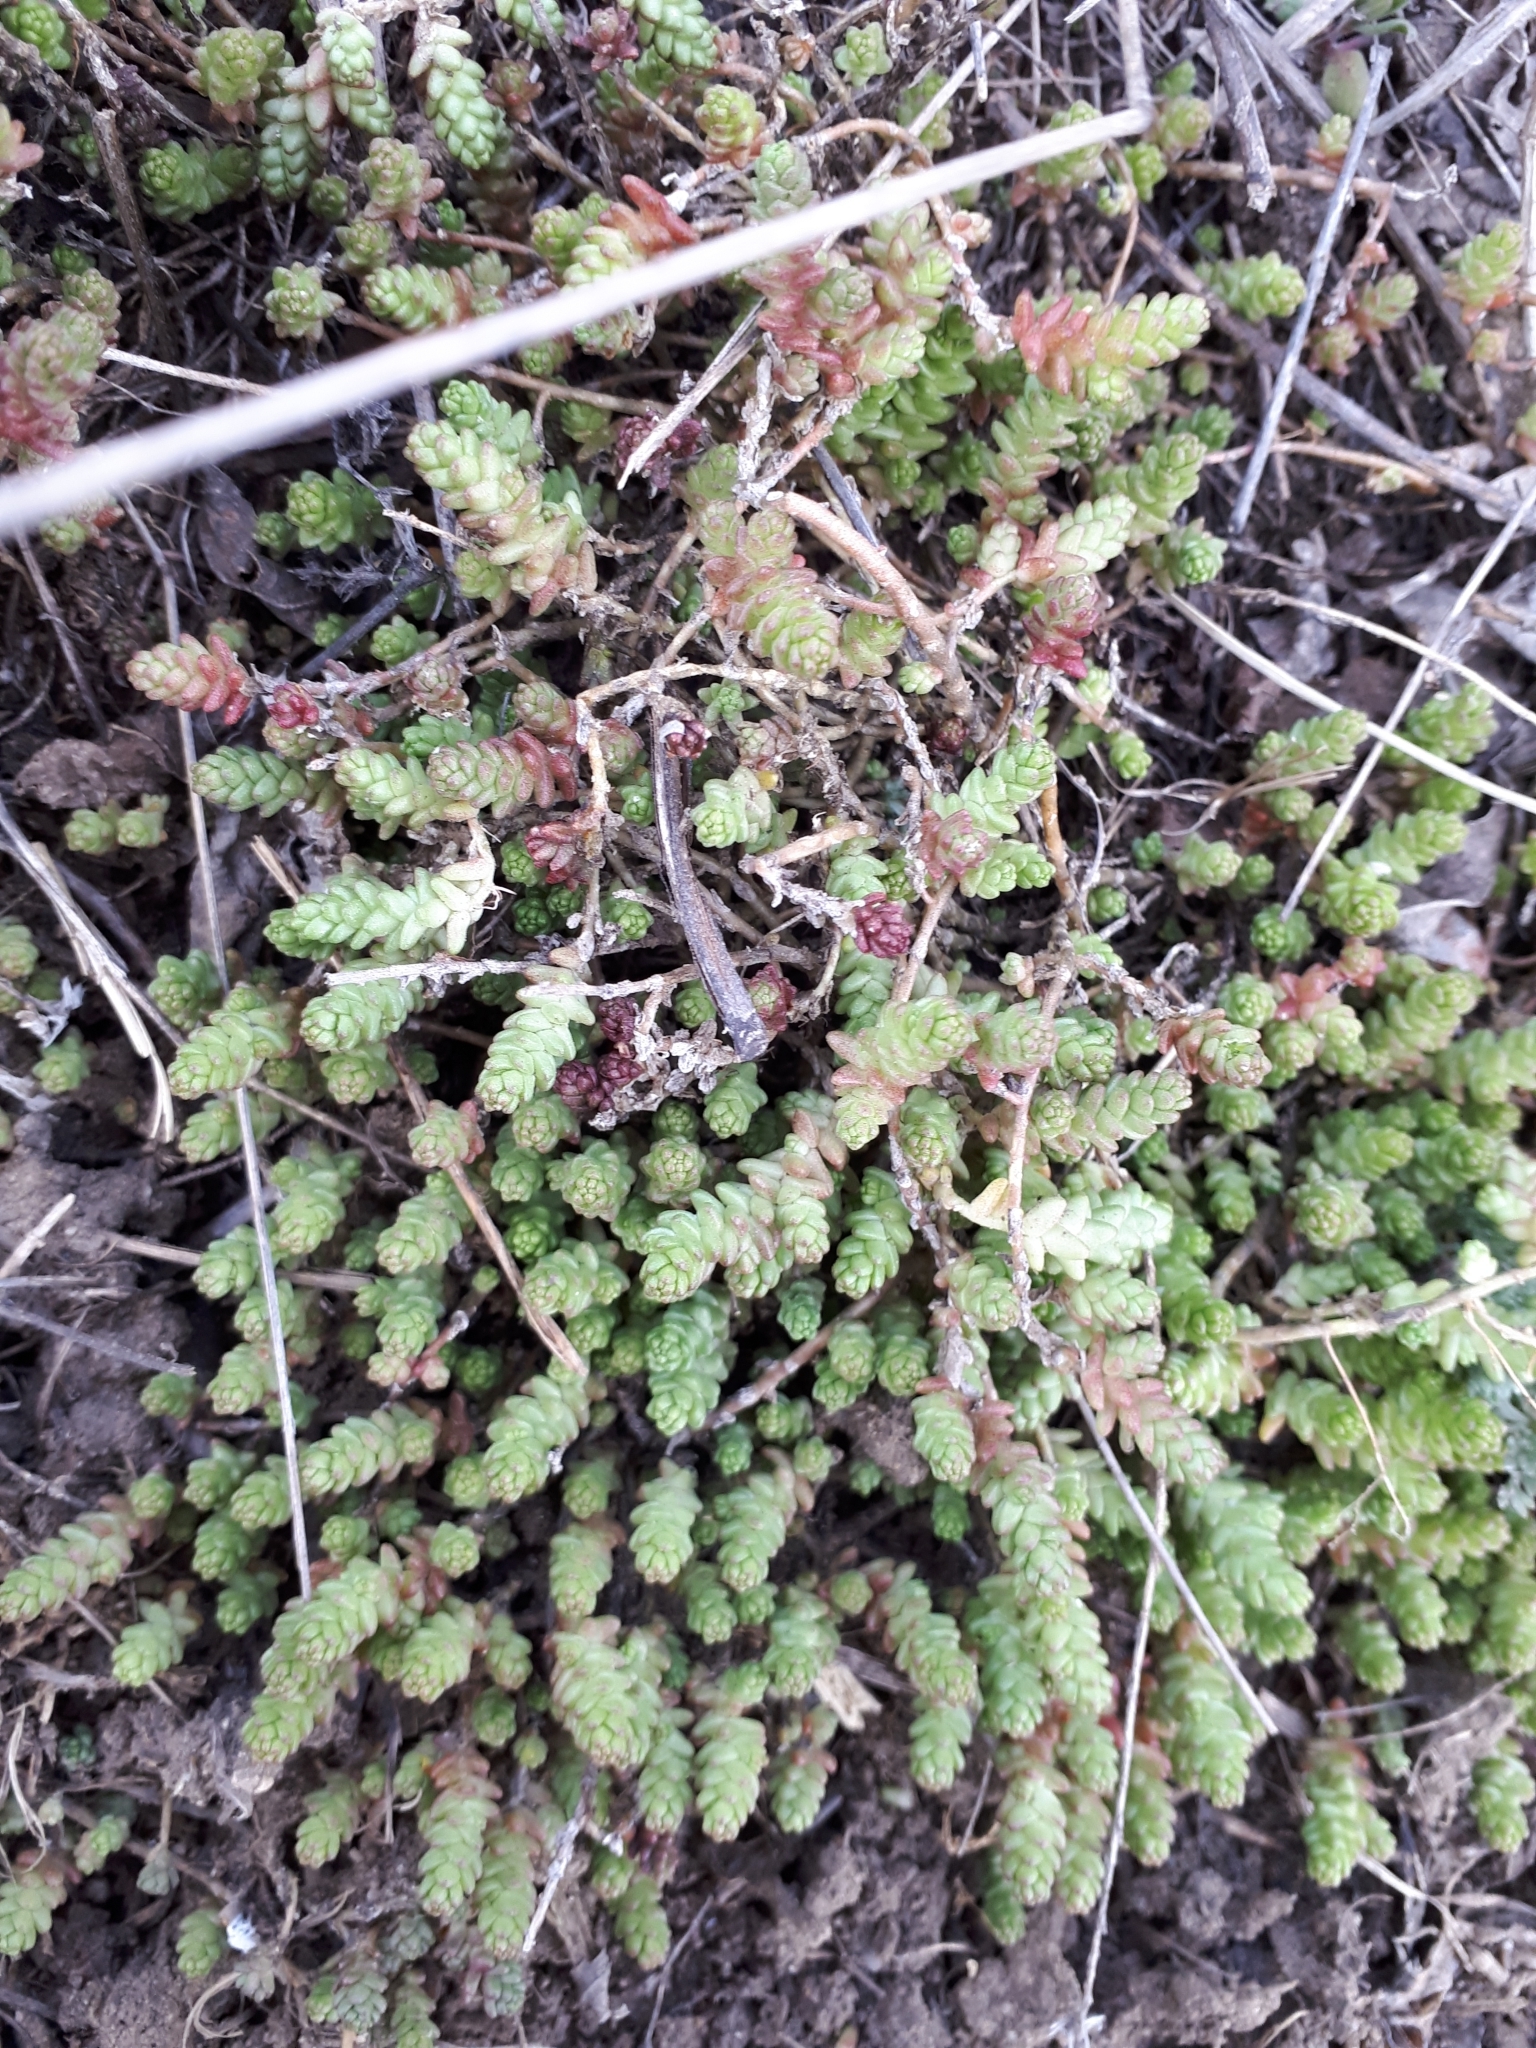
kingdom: Plantae
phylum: Tracheophyta
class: Magnoliopsida
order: Saxifragales
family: Crassulaceae
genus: Sedum
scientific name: Sedum acre
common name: Biting stonecrop
